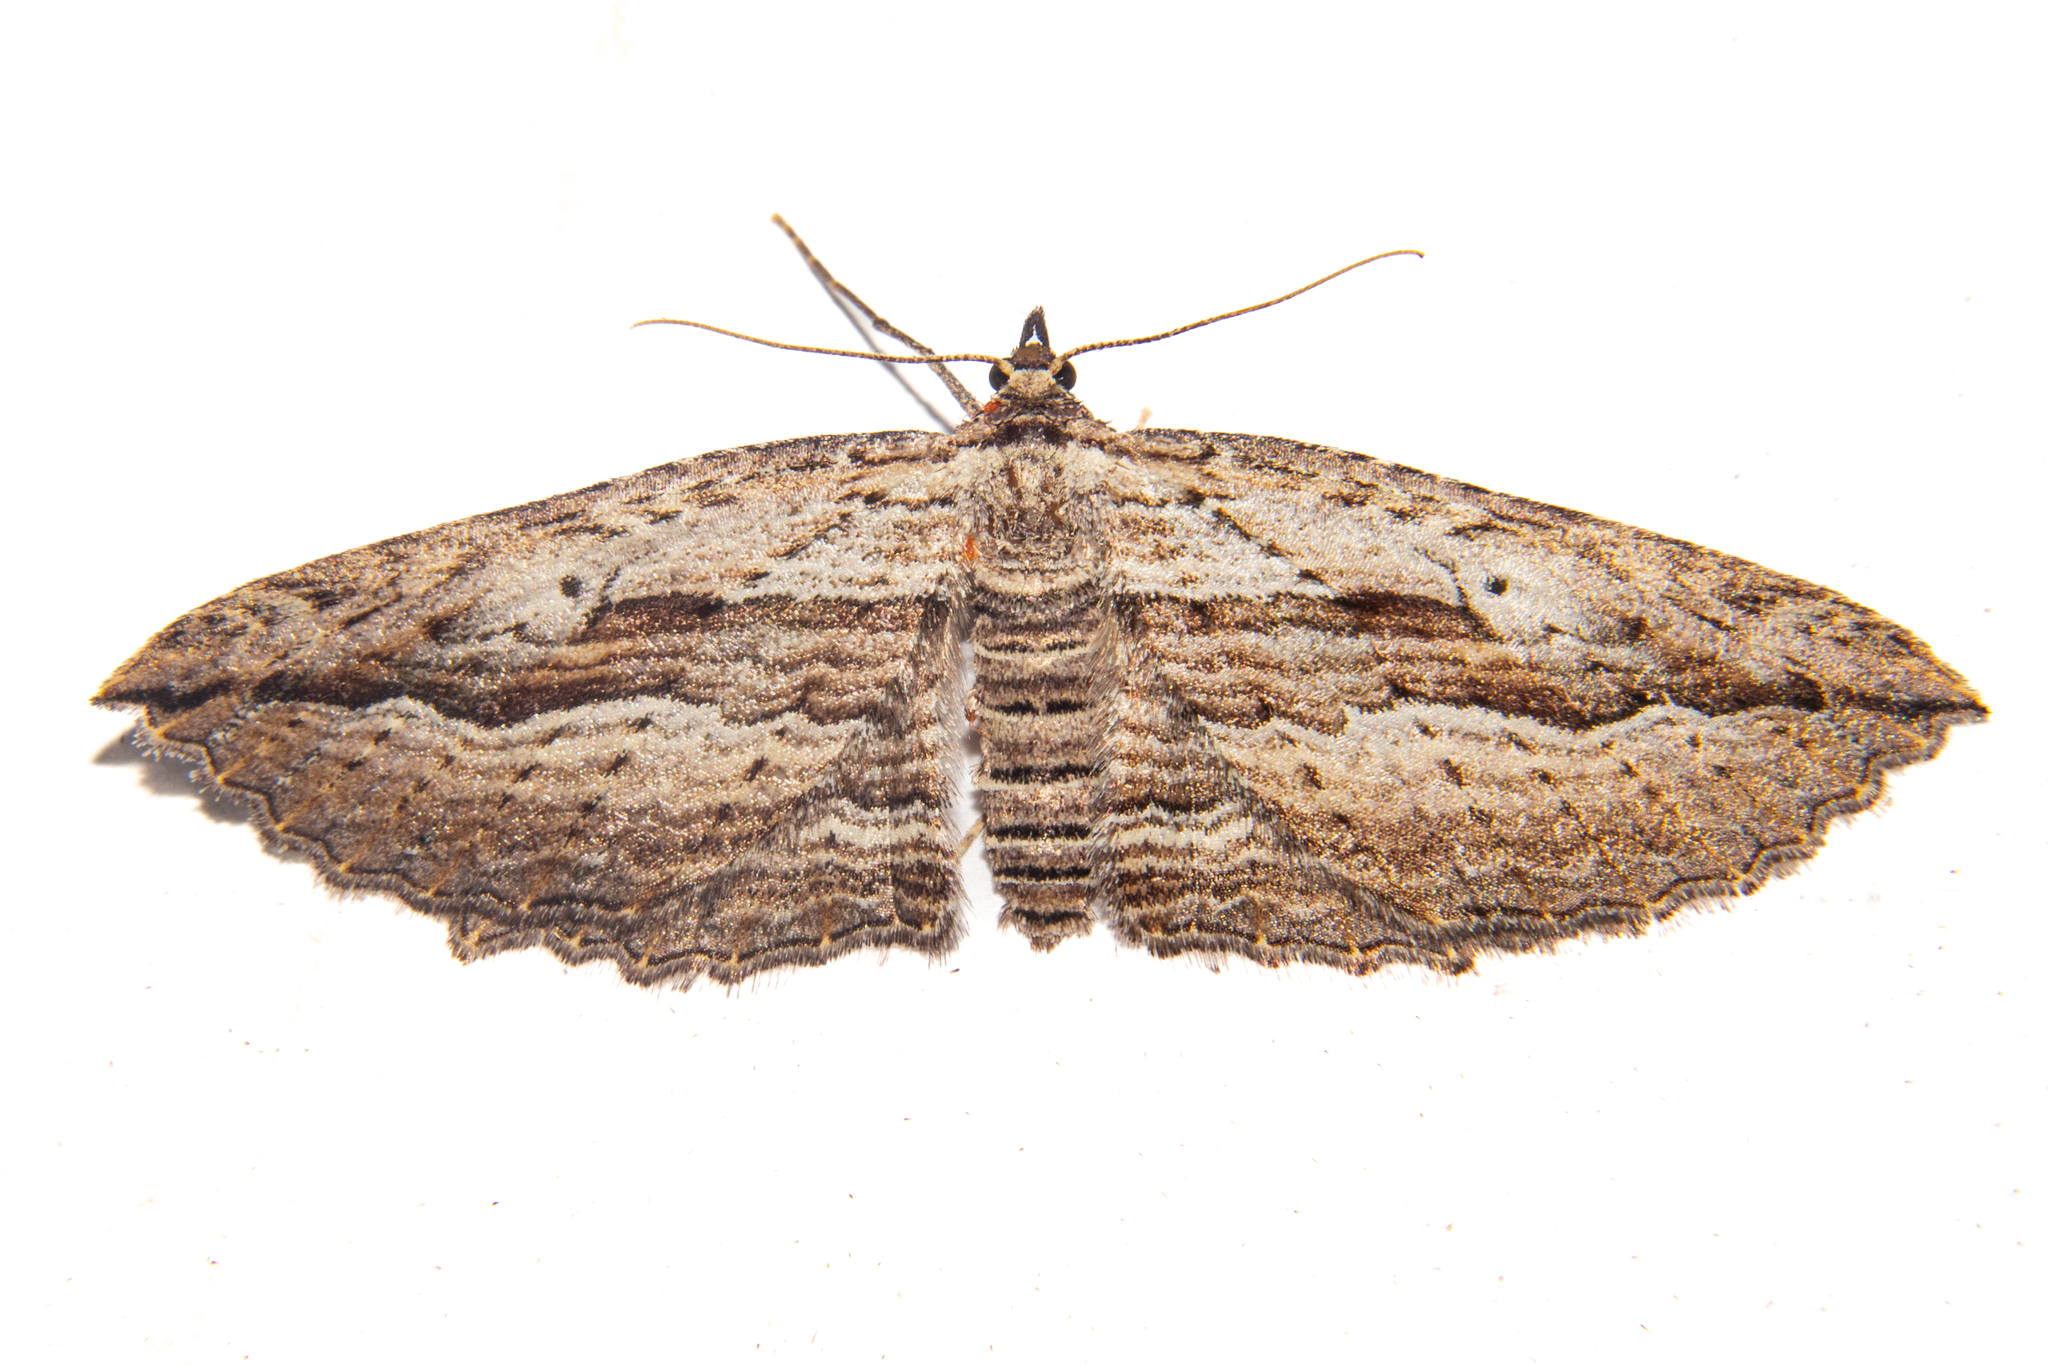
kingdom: Animalia
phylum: Arthropoda
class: Insecta
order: Lepidoptera
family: Geometridae
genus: Aponotoreas
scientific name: Aponotoreas dissimilis
